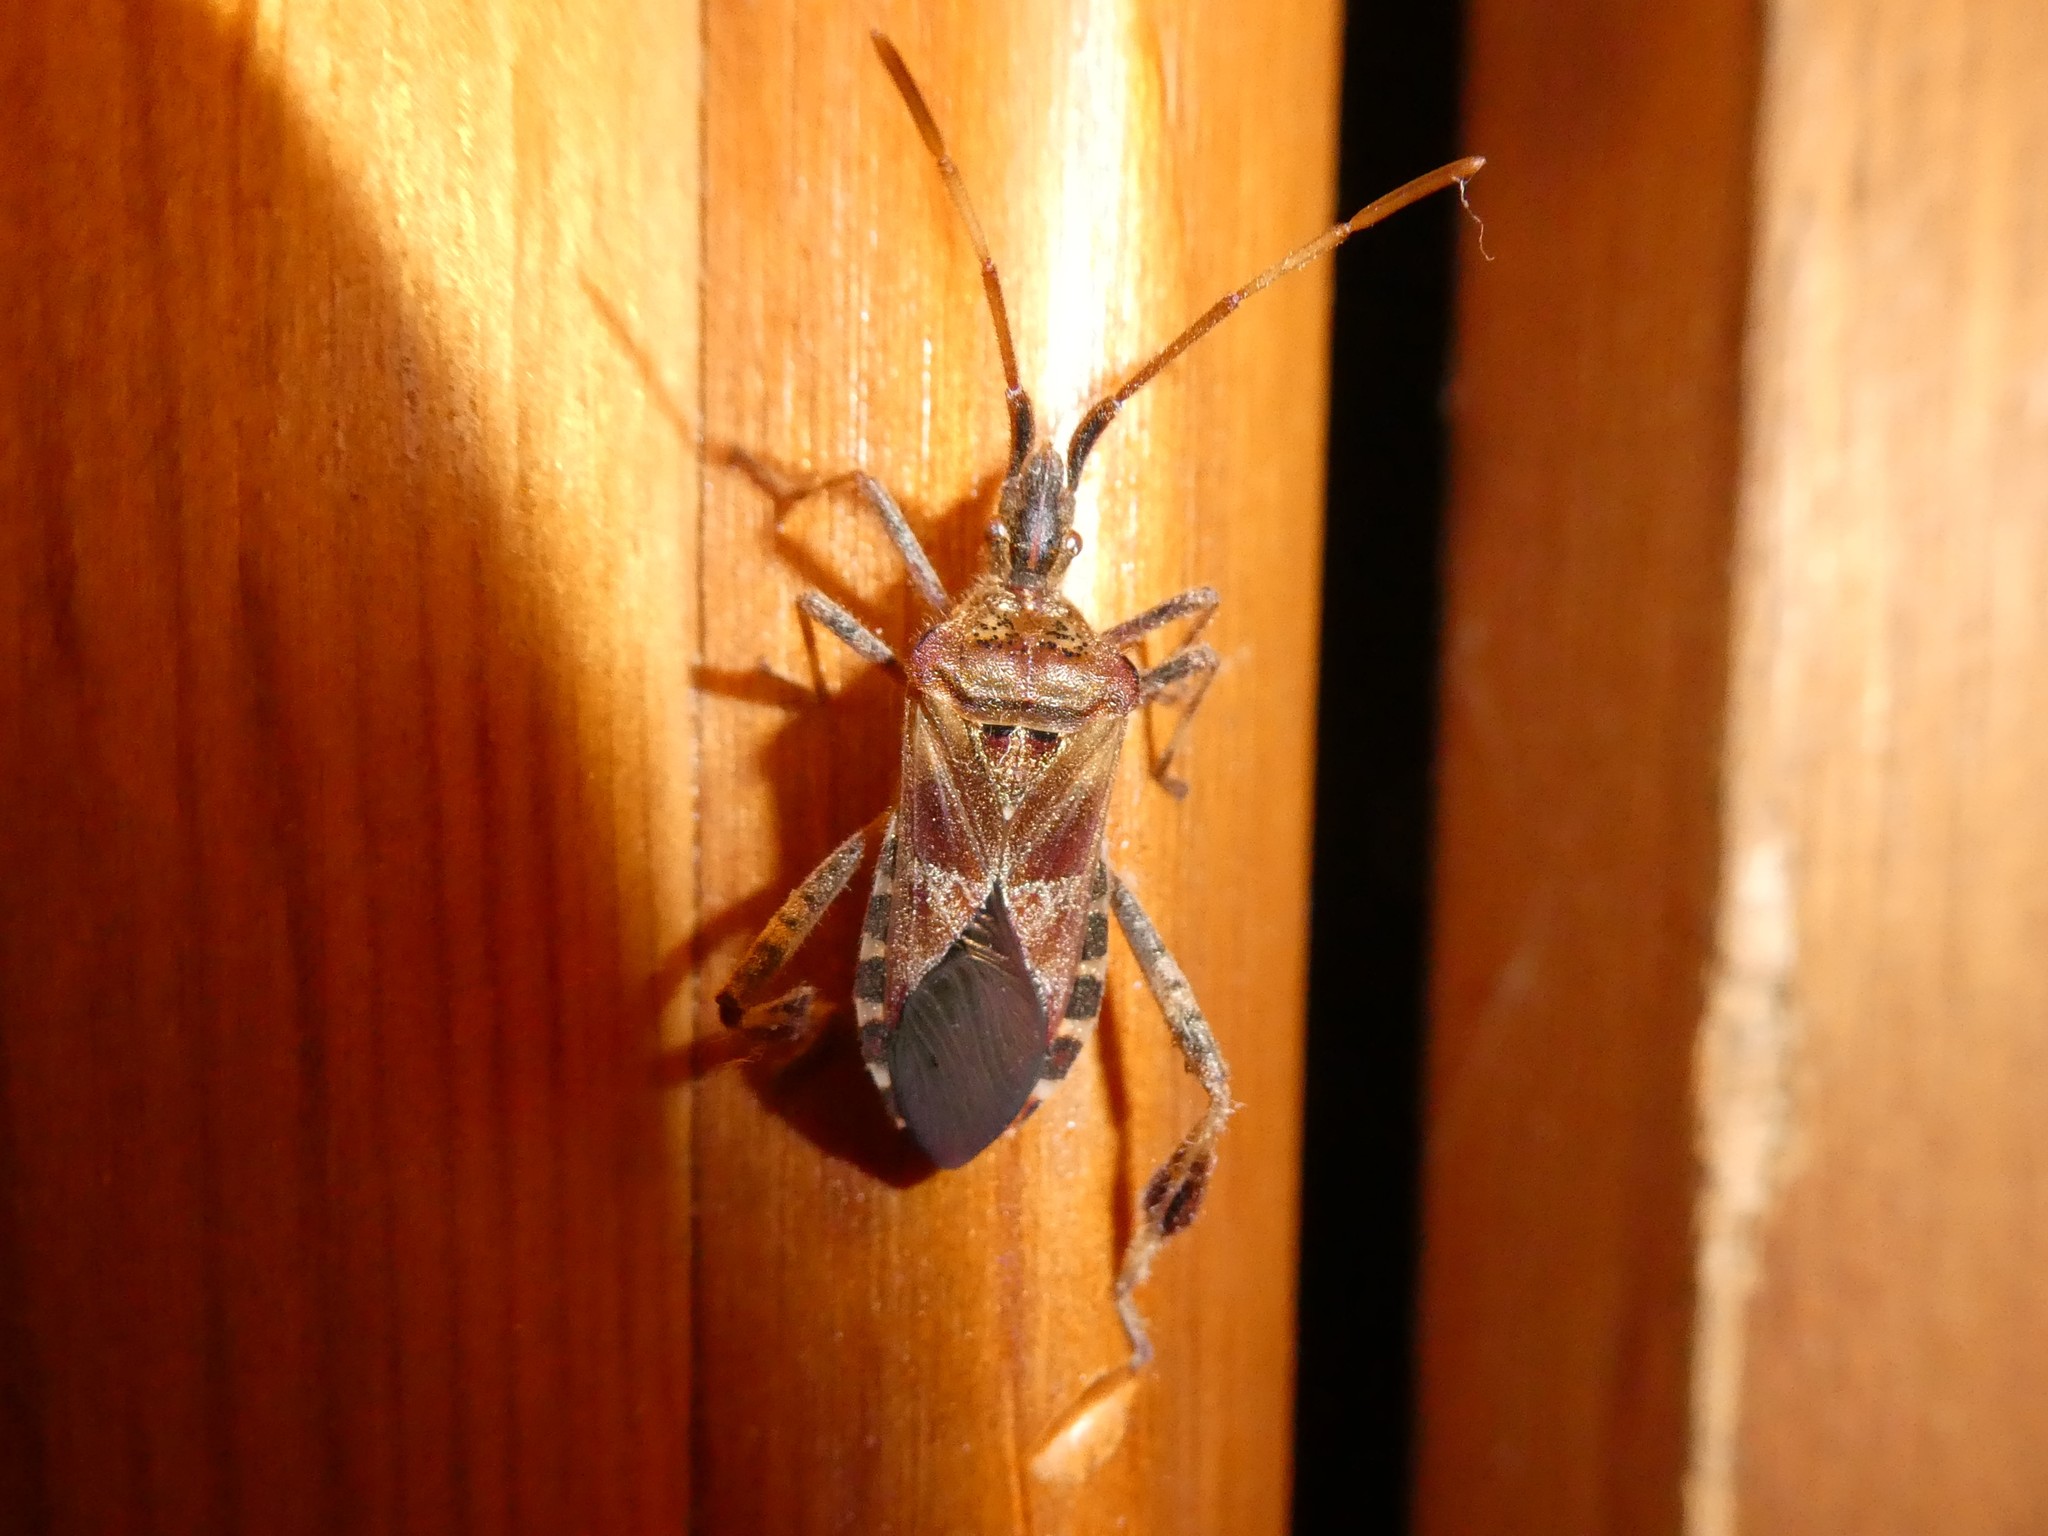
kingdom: Animalia
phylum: Arthropoda
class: Insecta
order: Hemiptera
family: Coreidae
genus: Leptoglossus
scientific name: Leptoglossus occidentalis
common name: Western conifer-seed bug
